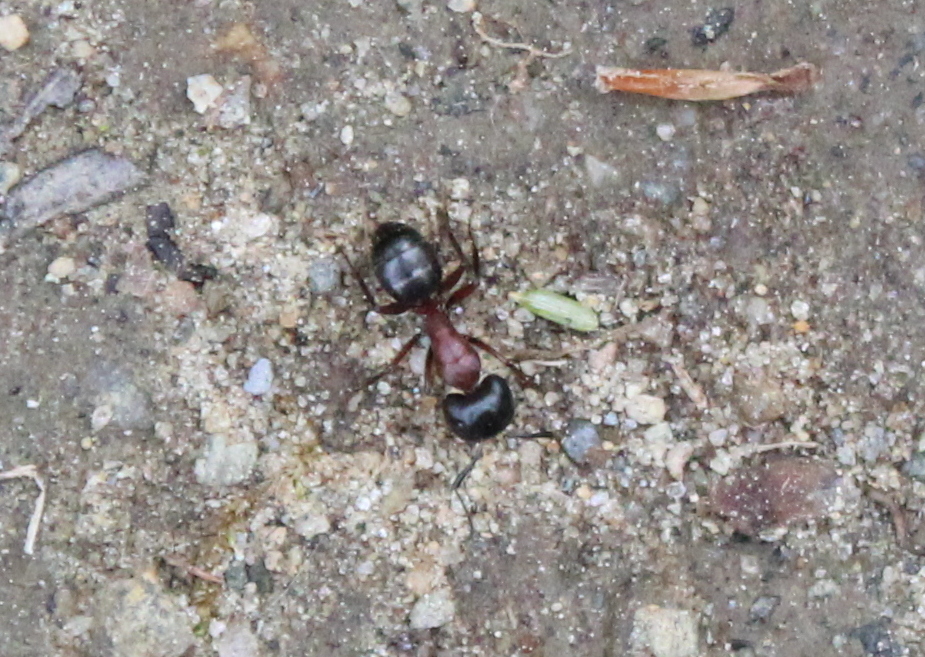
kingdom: Animalia
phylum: Arthropoda
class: Insecta
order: Hymenoptera
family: Formicidae
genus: Camponotus
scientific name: Camponotus novaeboracensis
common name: New york carpenter ant
